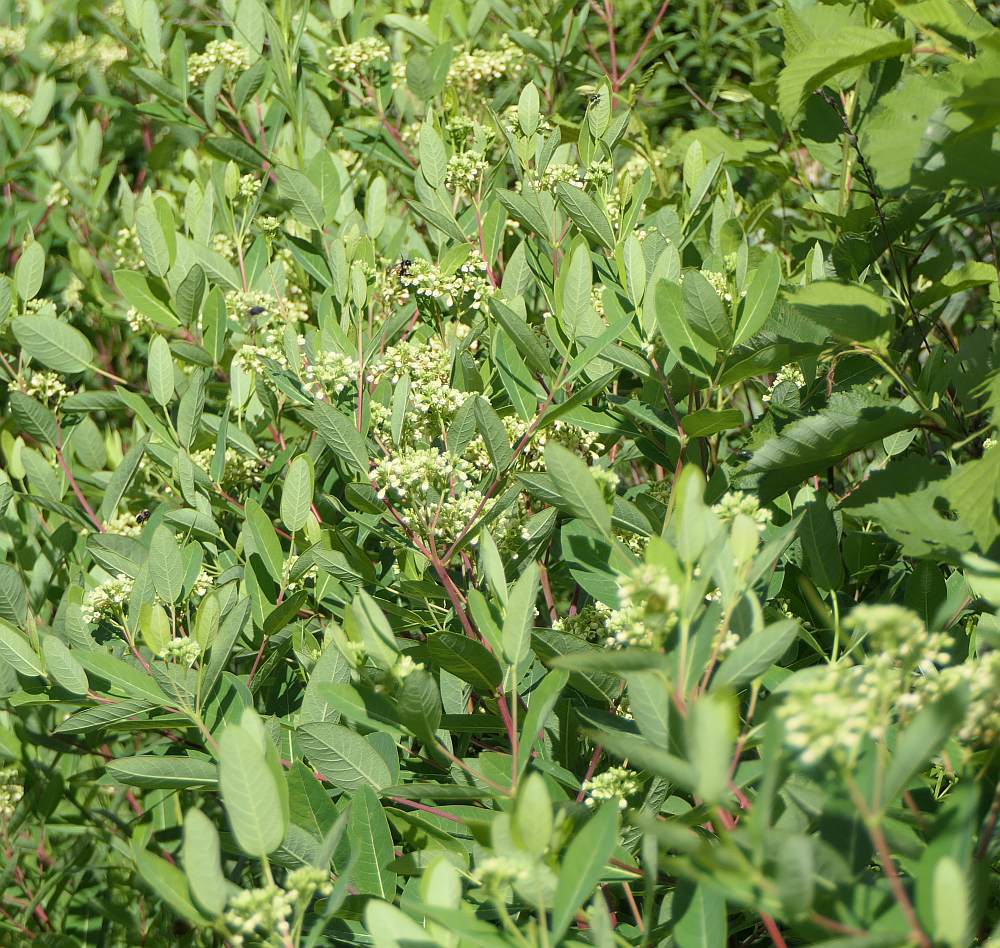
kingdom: Plantae
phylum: Tracheophyta
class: Magnoliopsida
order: Gentianales
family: Apocynaceae
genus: Apocynum
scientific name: Apocynum cannabinum
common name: Hemp dogbane
